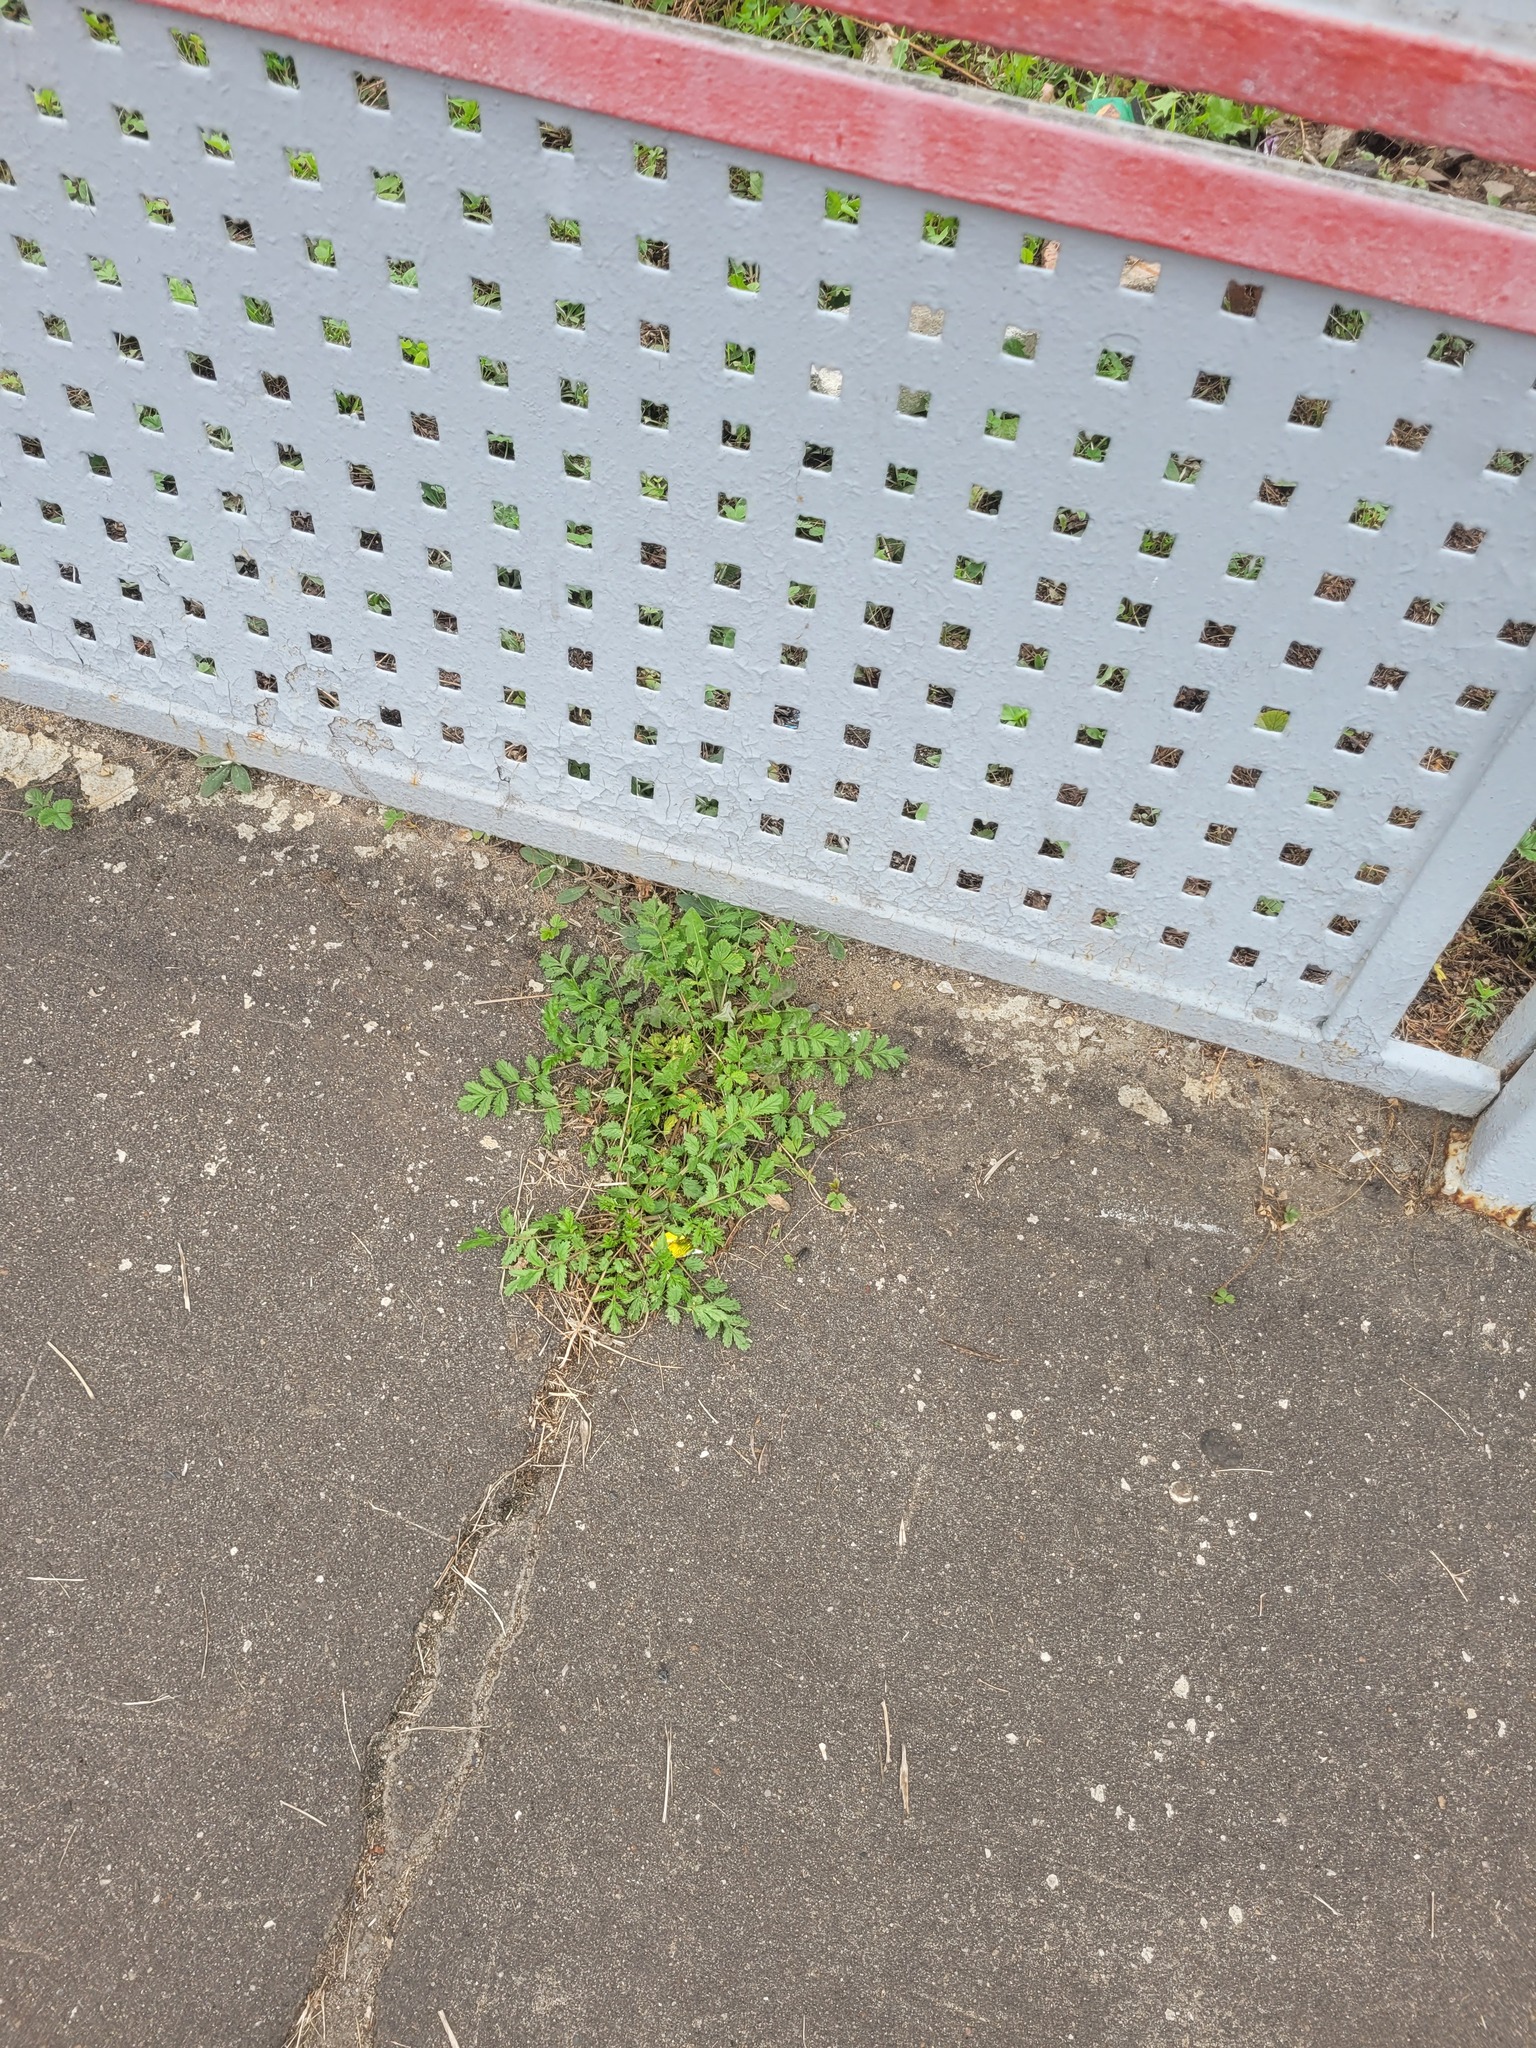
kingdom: Plantae
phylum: Tracheophyta
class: Magnoliopsida
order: Rosales
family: Rosaceae
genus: Potentilla
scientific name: Potentilla supina
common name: Prostrate cinquefoil
